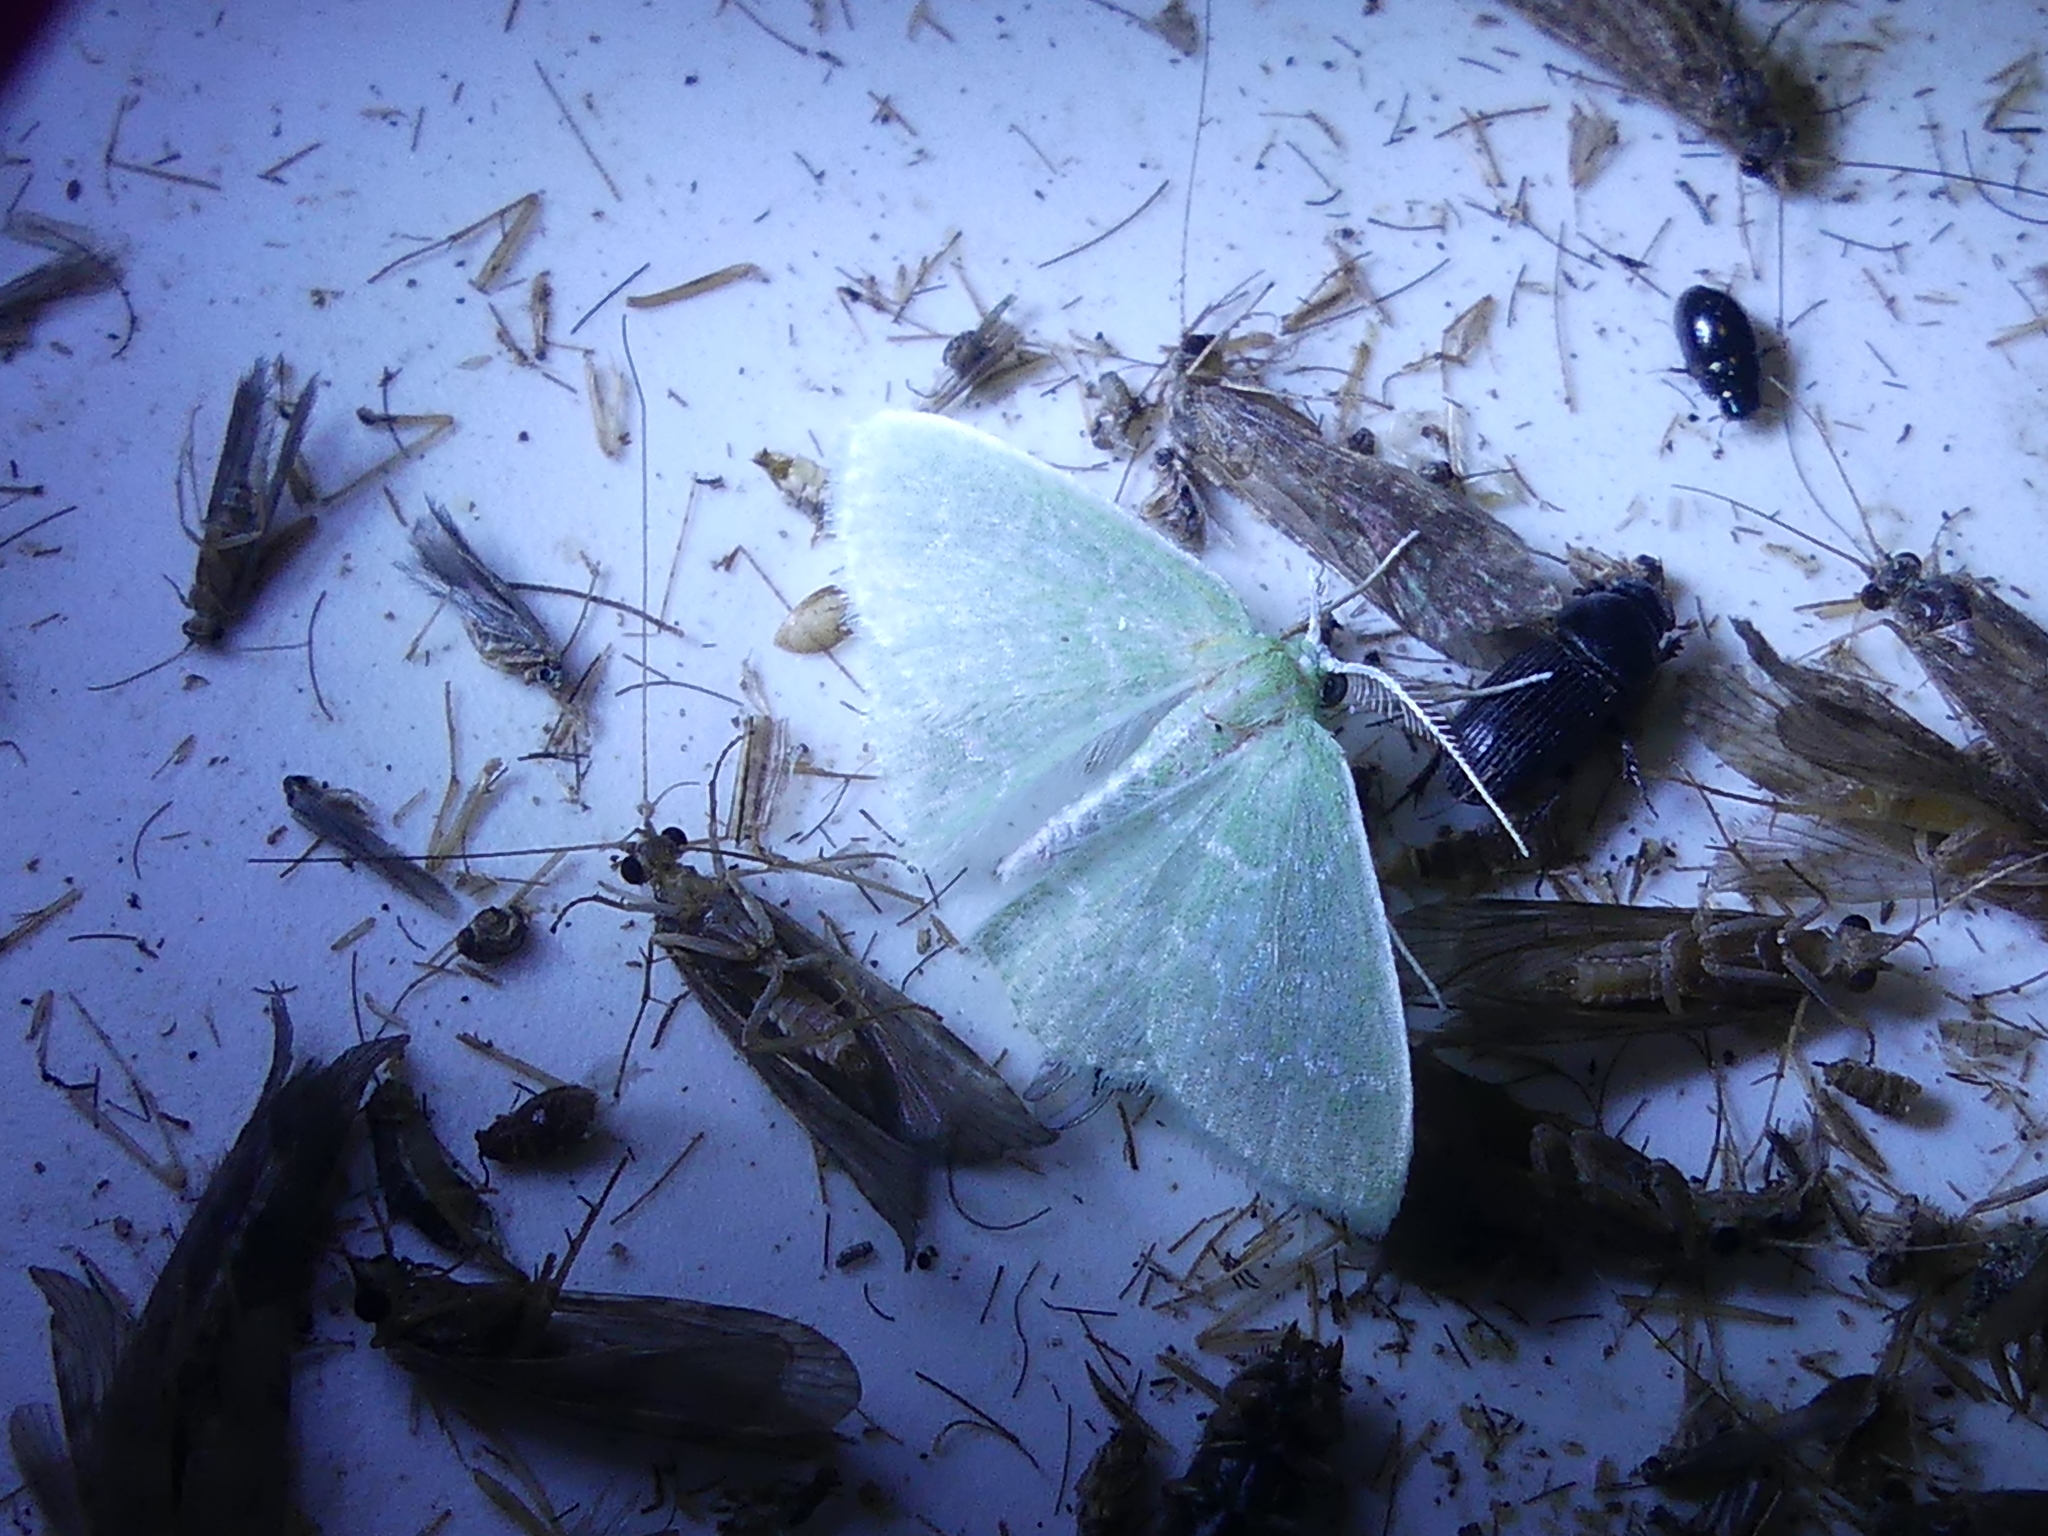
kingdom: Animalia
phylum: Arthropoda
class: Insecta
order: Lepidoptera
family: Geometridae
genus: Synchlora
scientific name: Synchlora frondaria
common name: Southern emerald
